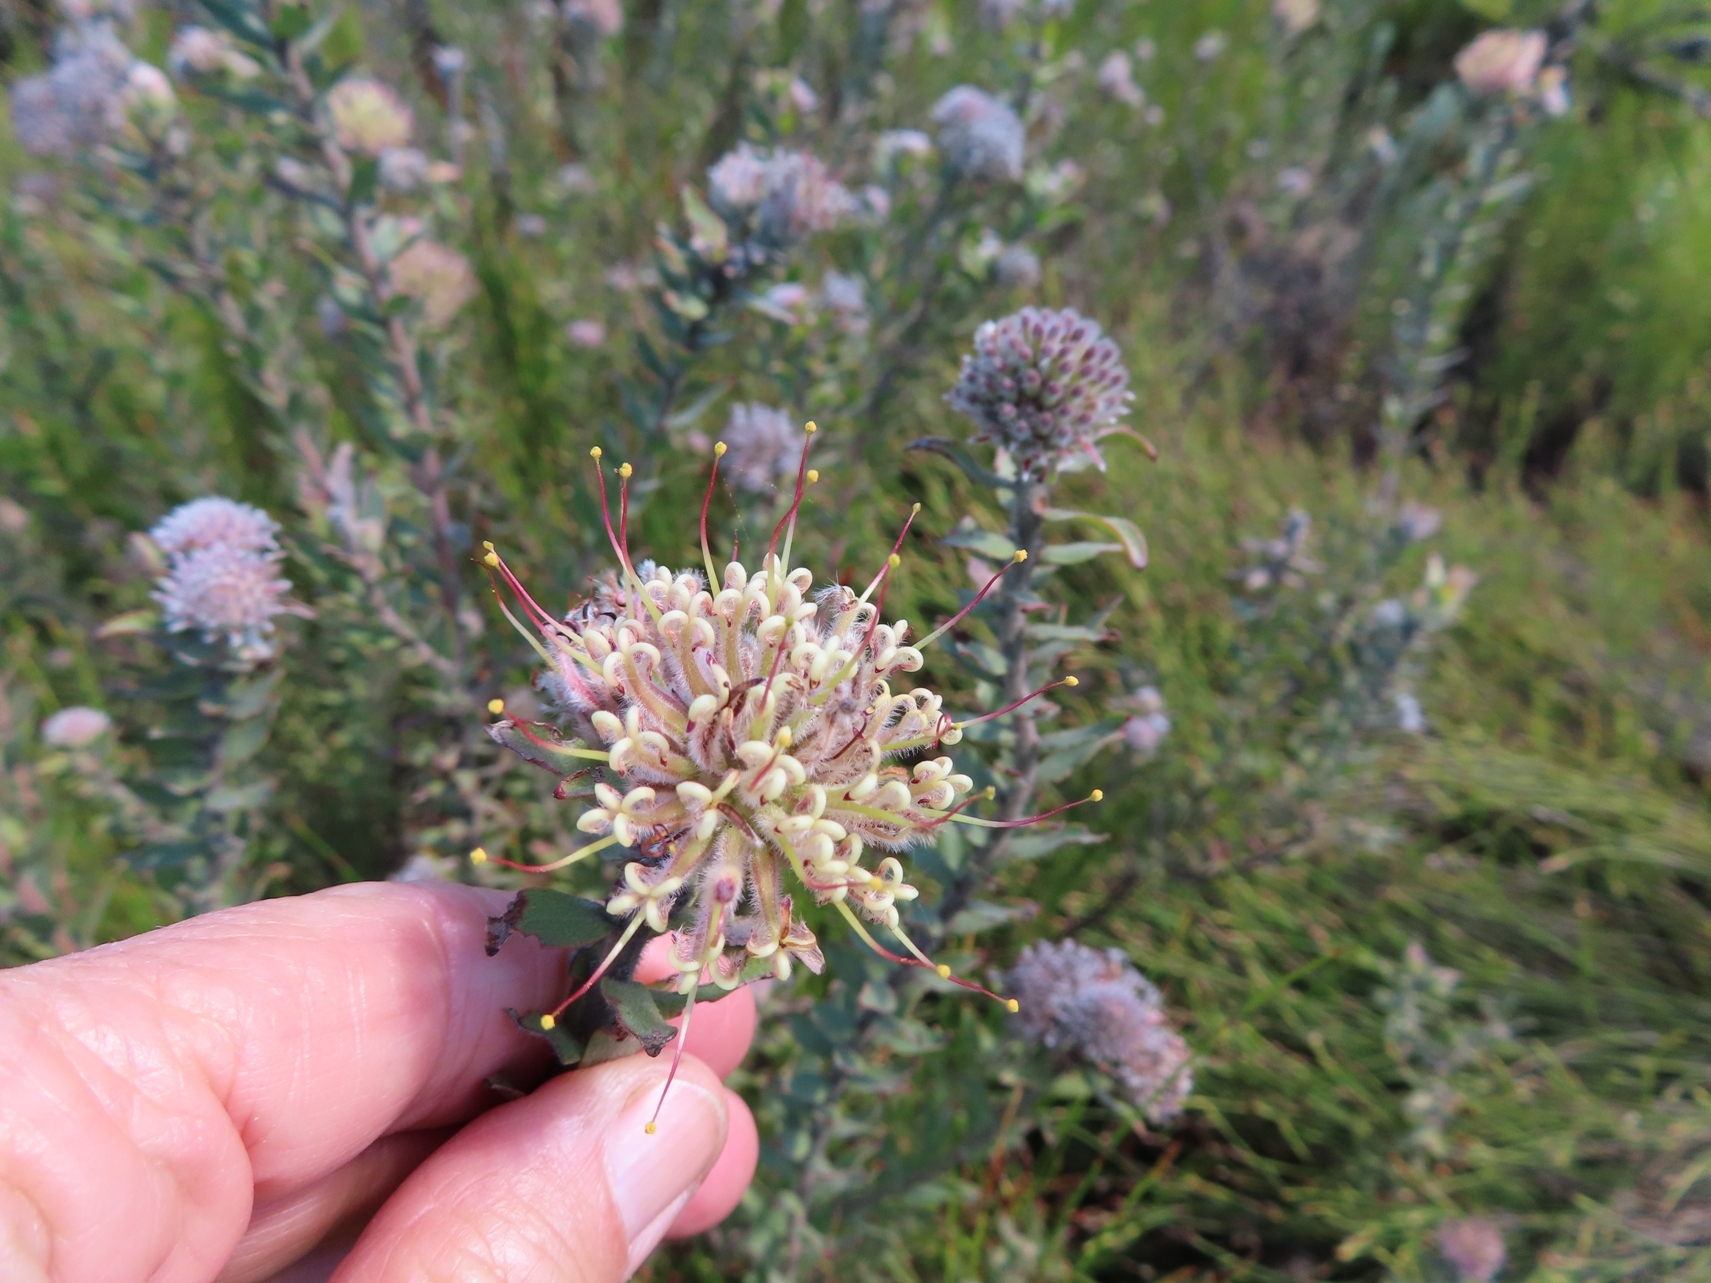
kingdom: Plantae
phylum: Tracheophyta
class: Magnoliopsida
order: Proteales
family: Proteaceae
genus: Leucospermum
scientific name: Leucospermum calligerum
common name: Arid pincushion
